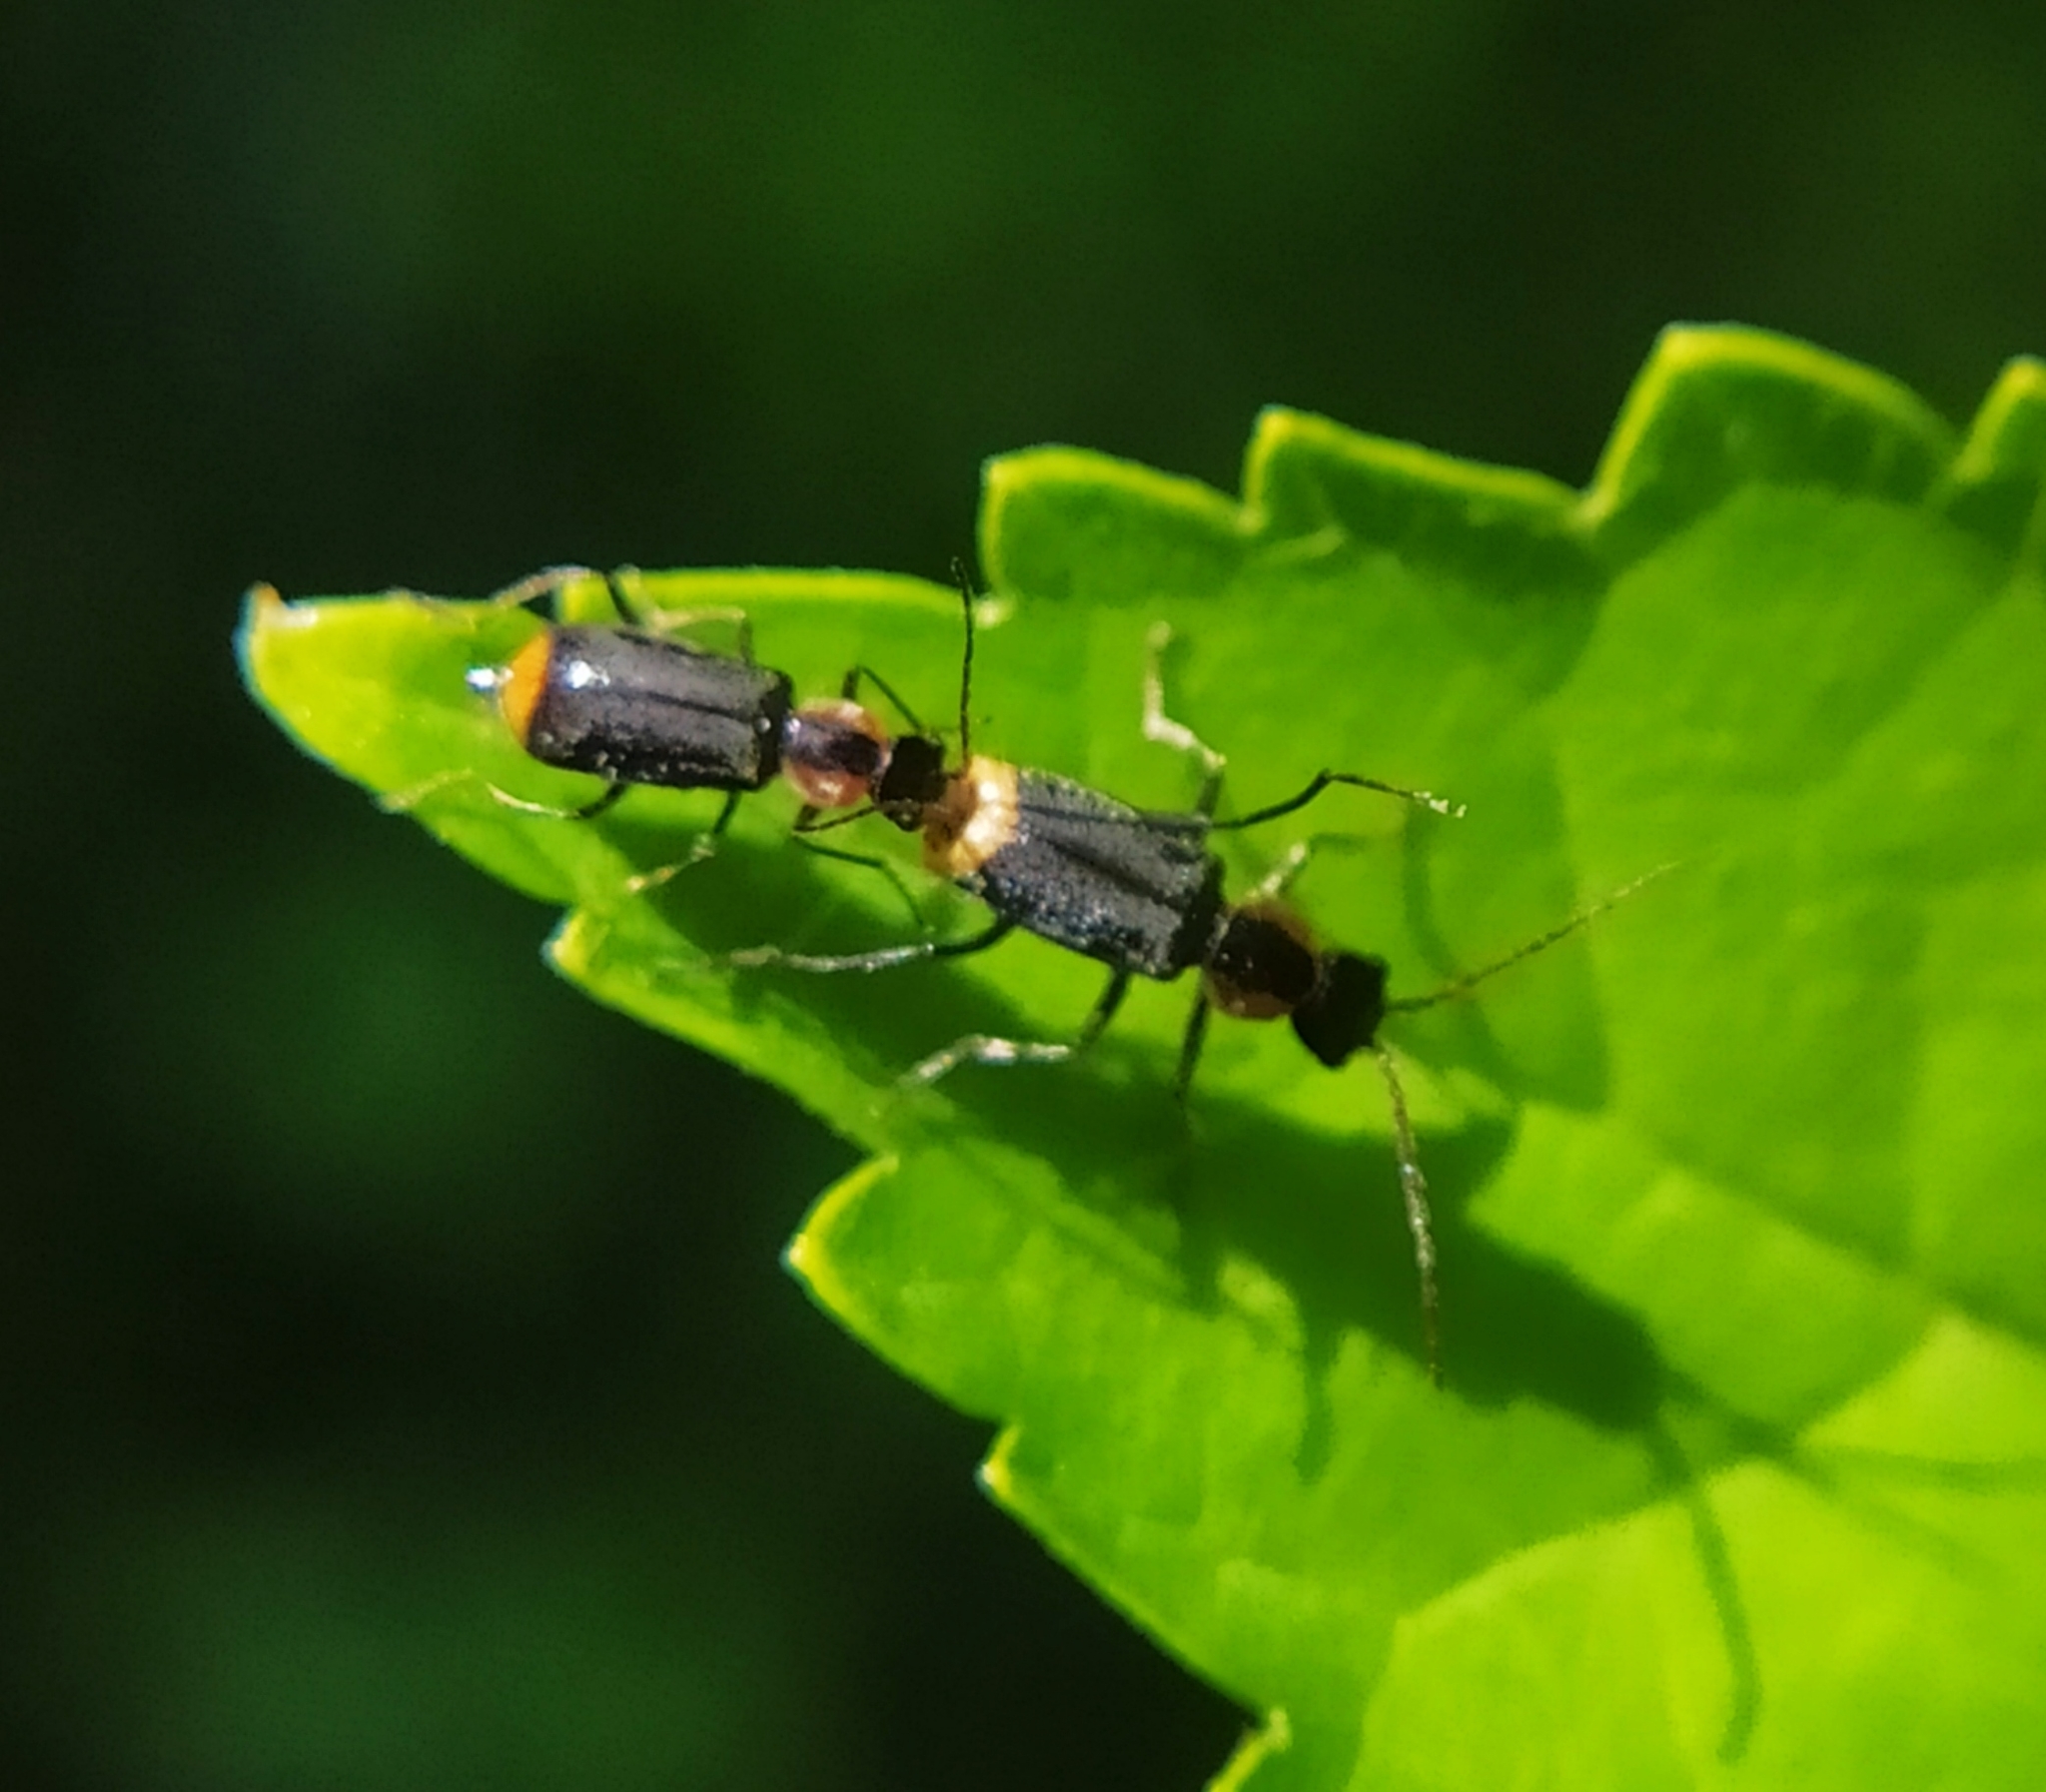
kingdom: Animalia
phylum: Arthropoda
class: Insecta
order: Coleoptera
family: Melyridae
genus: Axinotarsus
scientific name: Axinotarsus pulicarius
